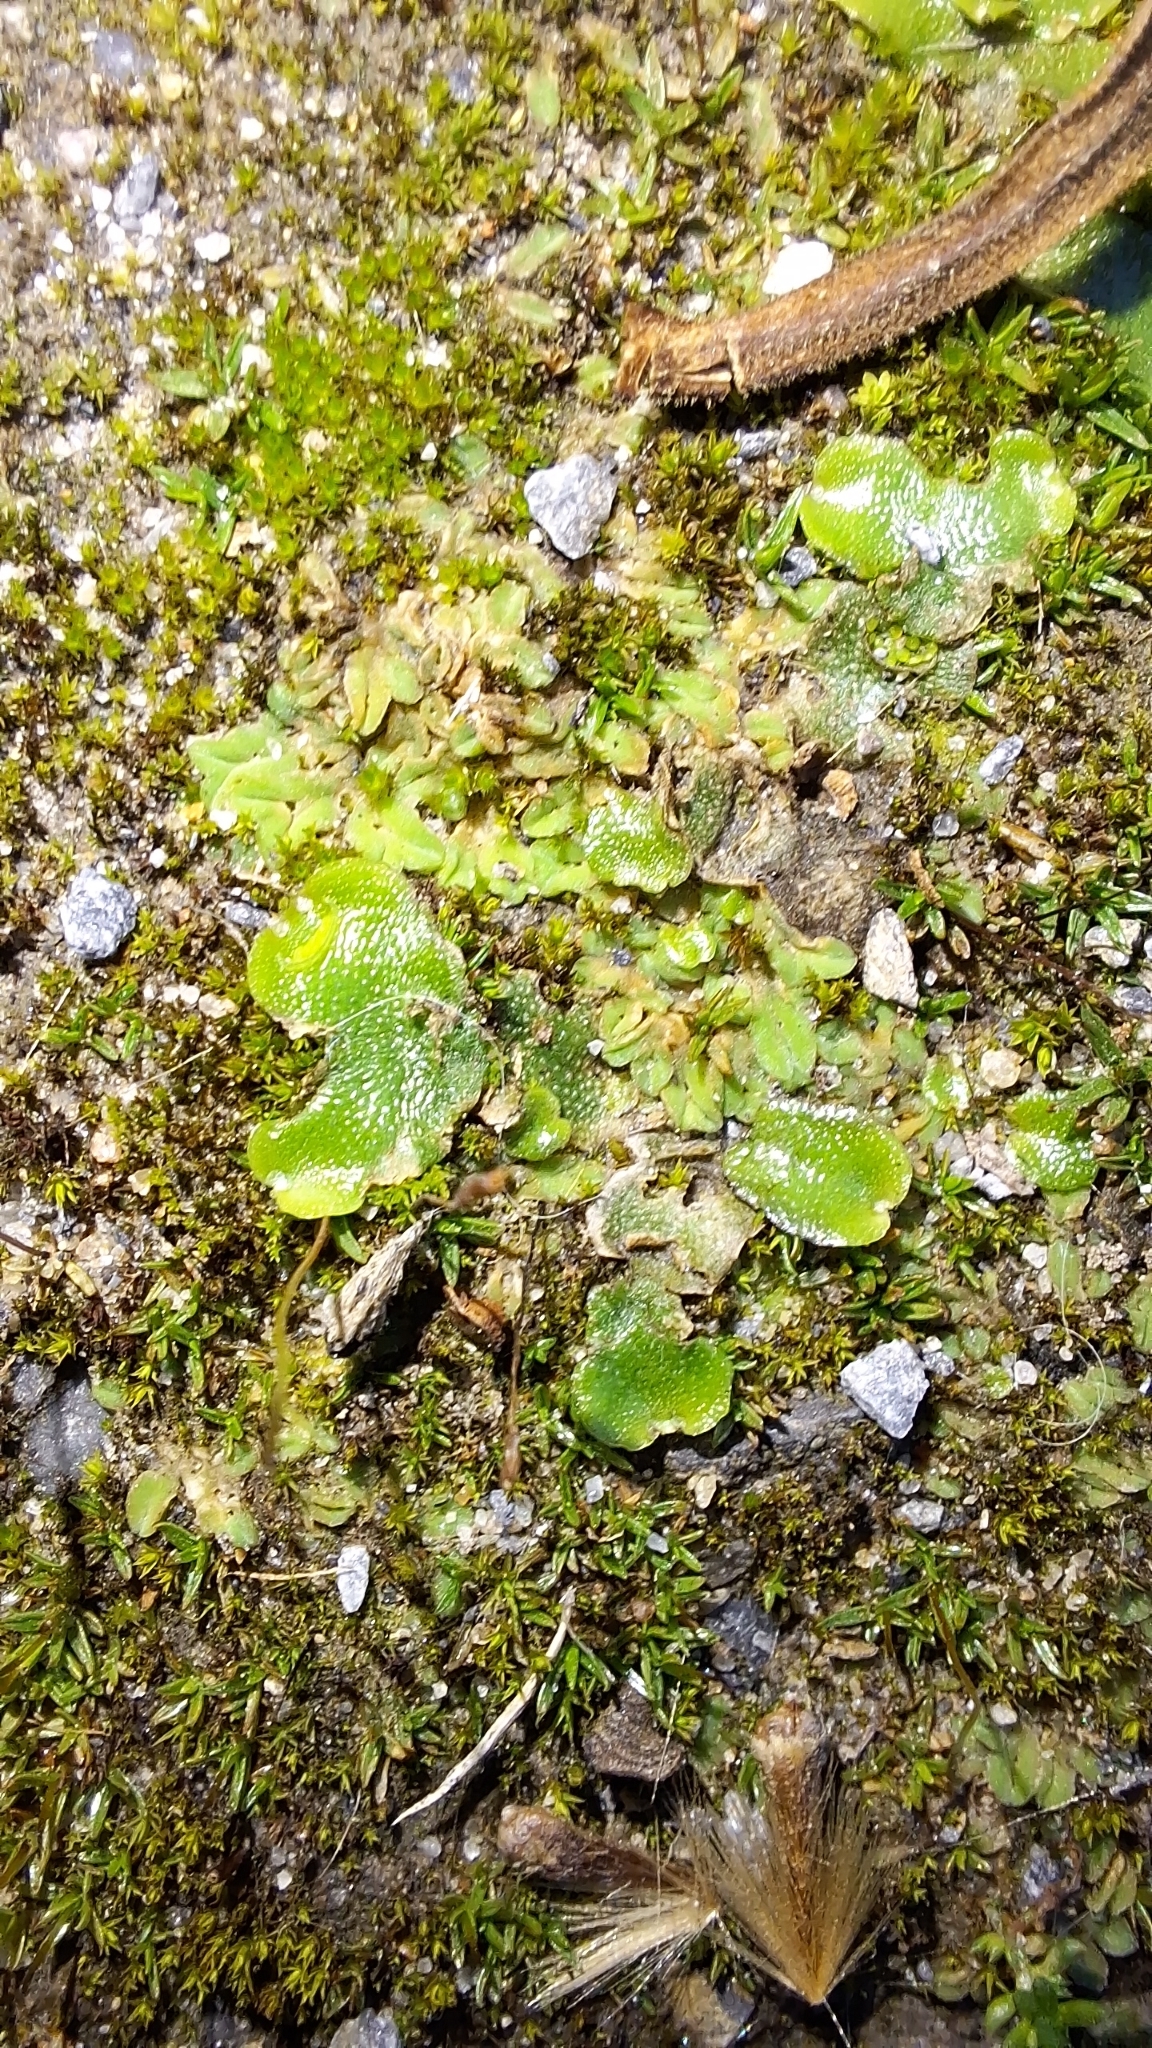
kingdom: Plantae
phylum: Marchantiophyta
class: Marchantiopsida
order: Lunulariales
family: Lunulariaceae
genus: Lunularia
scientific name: Lunularia cruciata
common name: Crescent-cup liverwort
